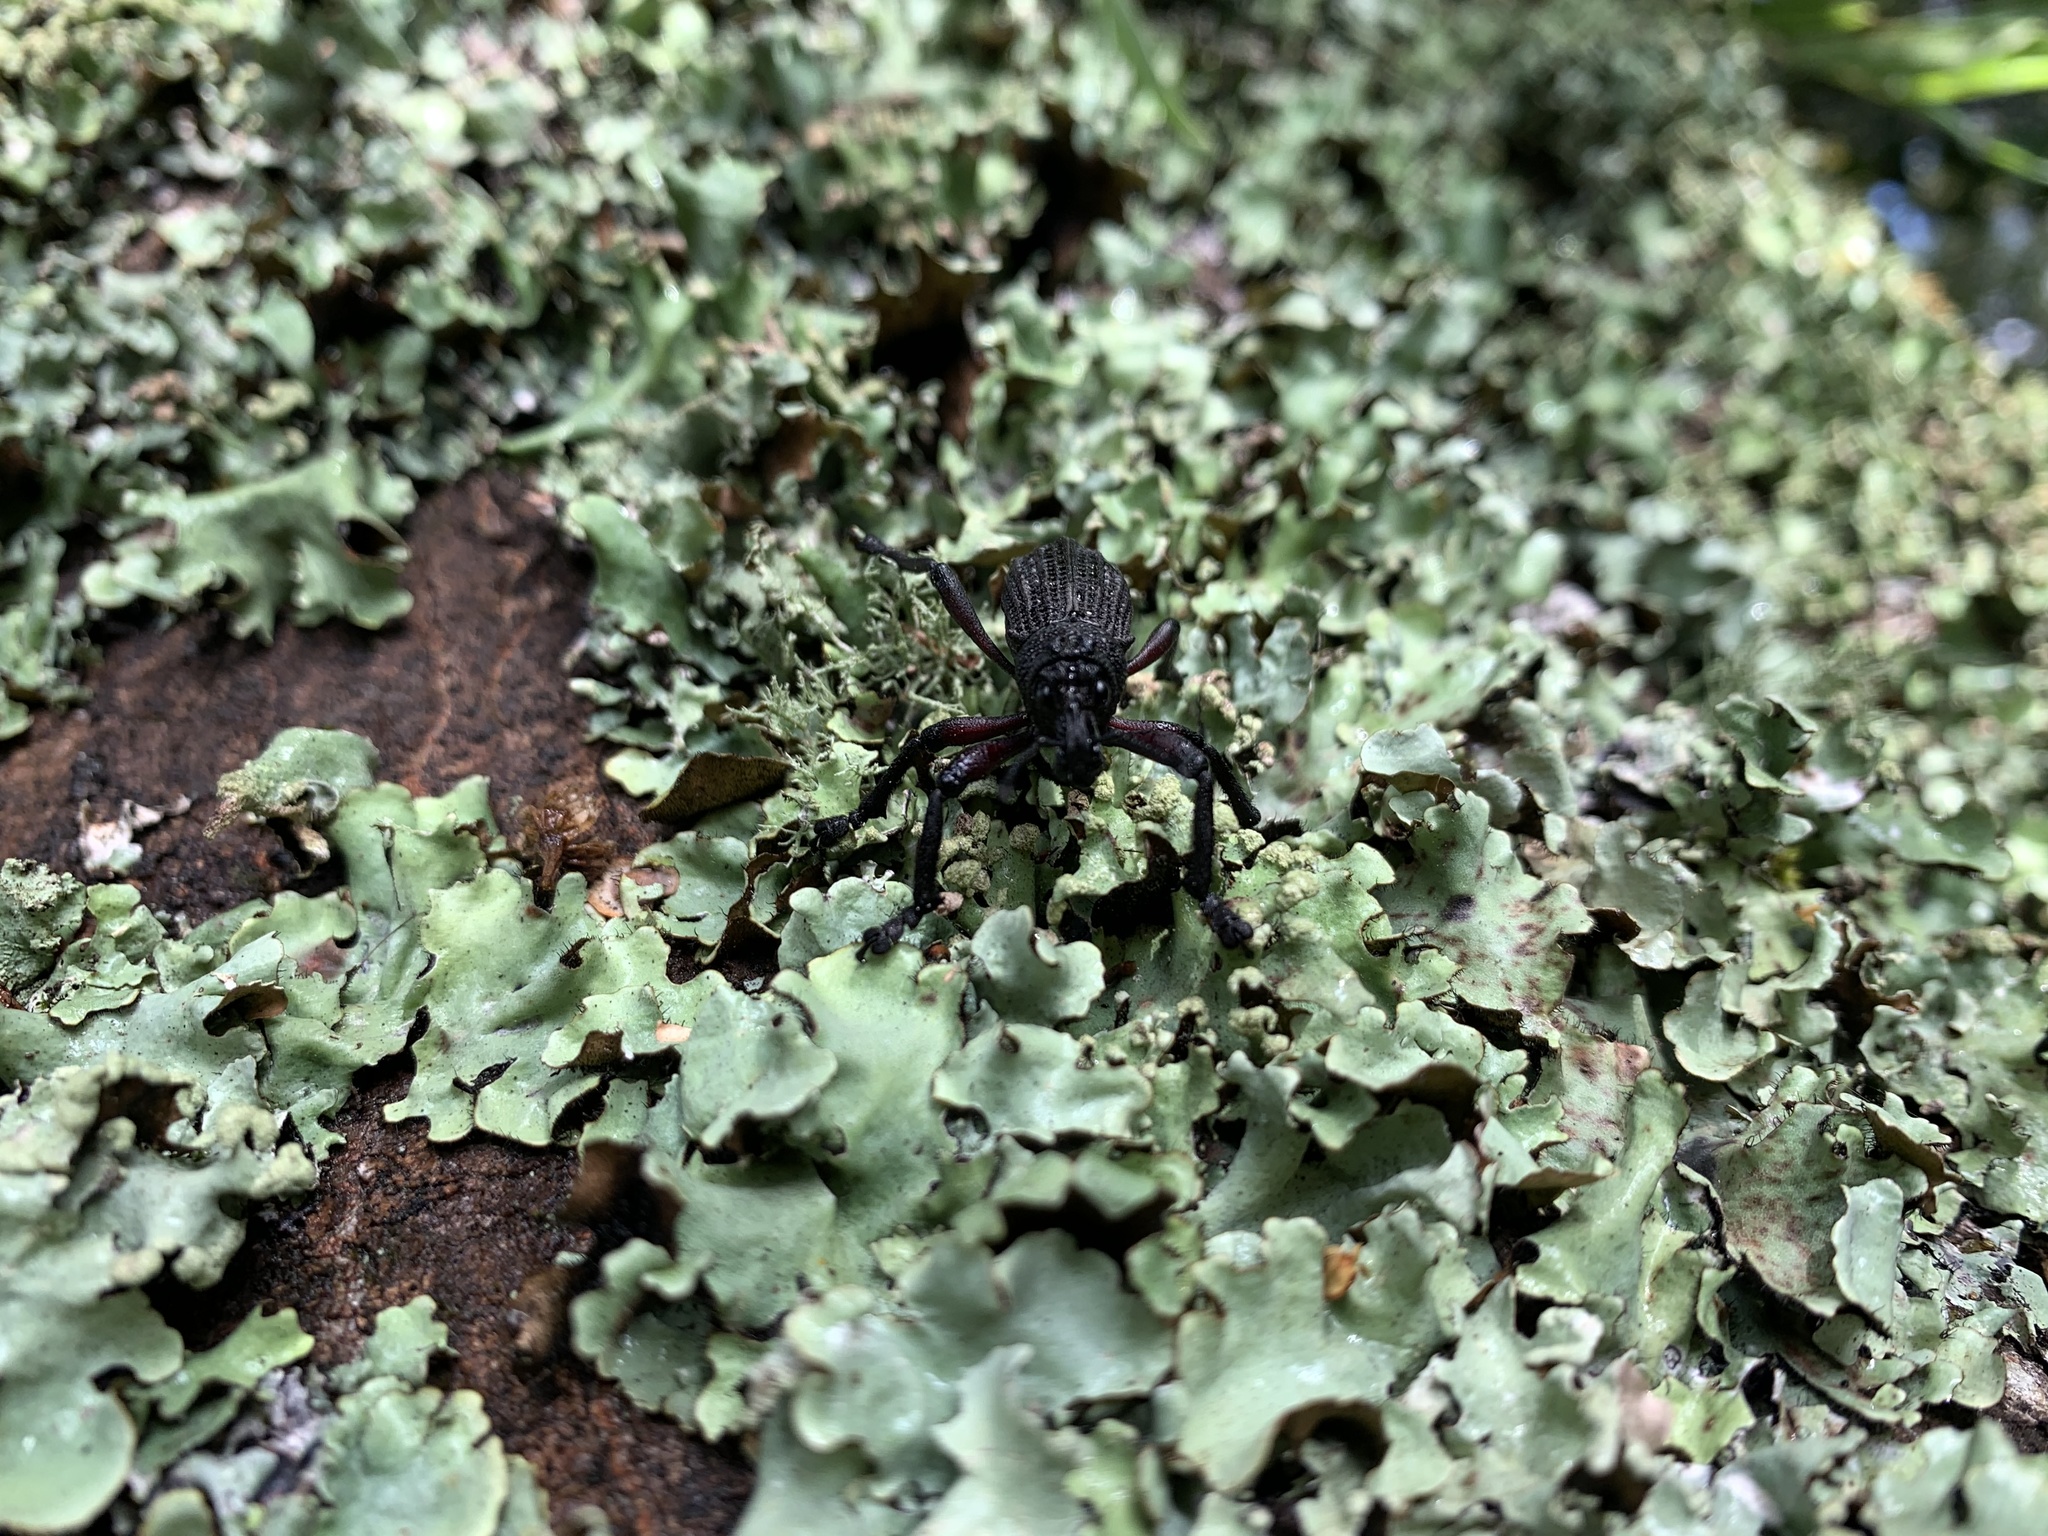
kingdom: Animalia
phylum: Arthropoda
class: Insecta
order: Coleoptera
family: Curculionidae
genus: Aegorhinus
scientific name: Aegorhinus
